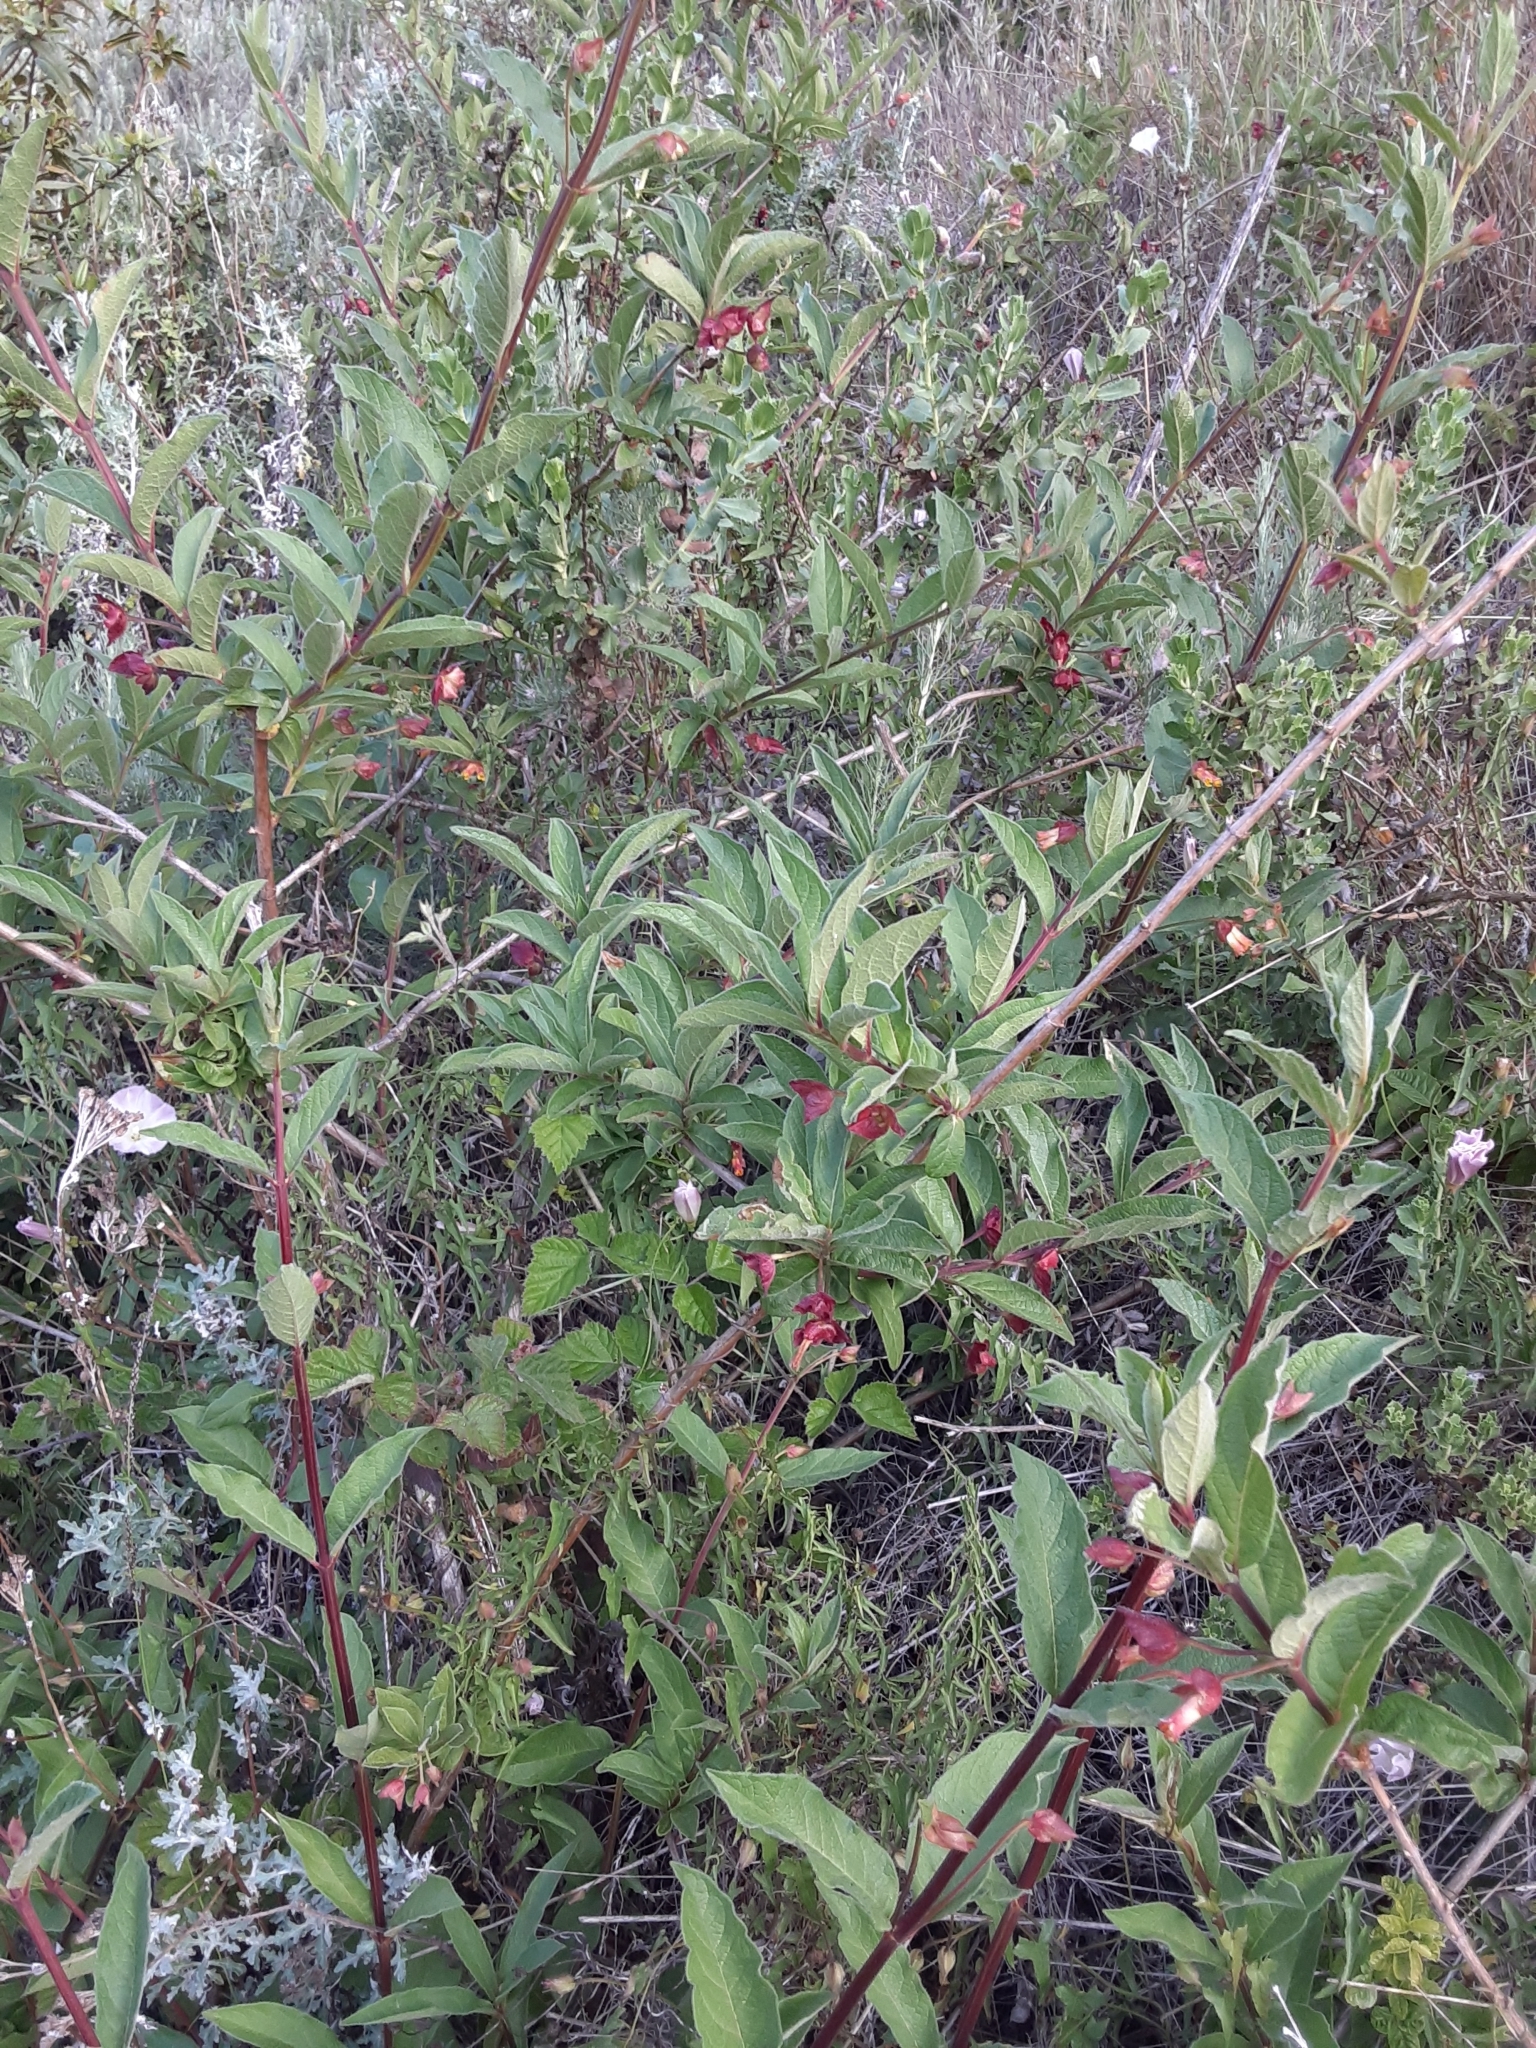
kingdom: Plantae
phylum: Tracheophyta
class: Magnoliopsida
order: Dipsacales
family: Caprifoliaceae
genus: Lonicera
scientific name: Lonicera involucrata
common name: Californian honeysuckle
